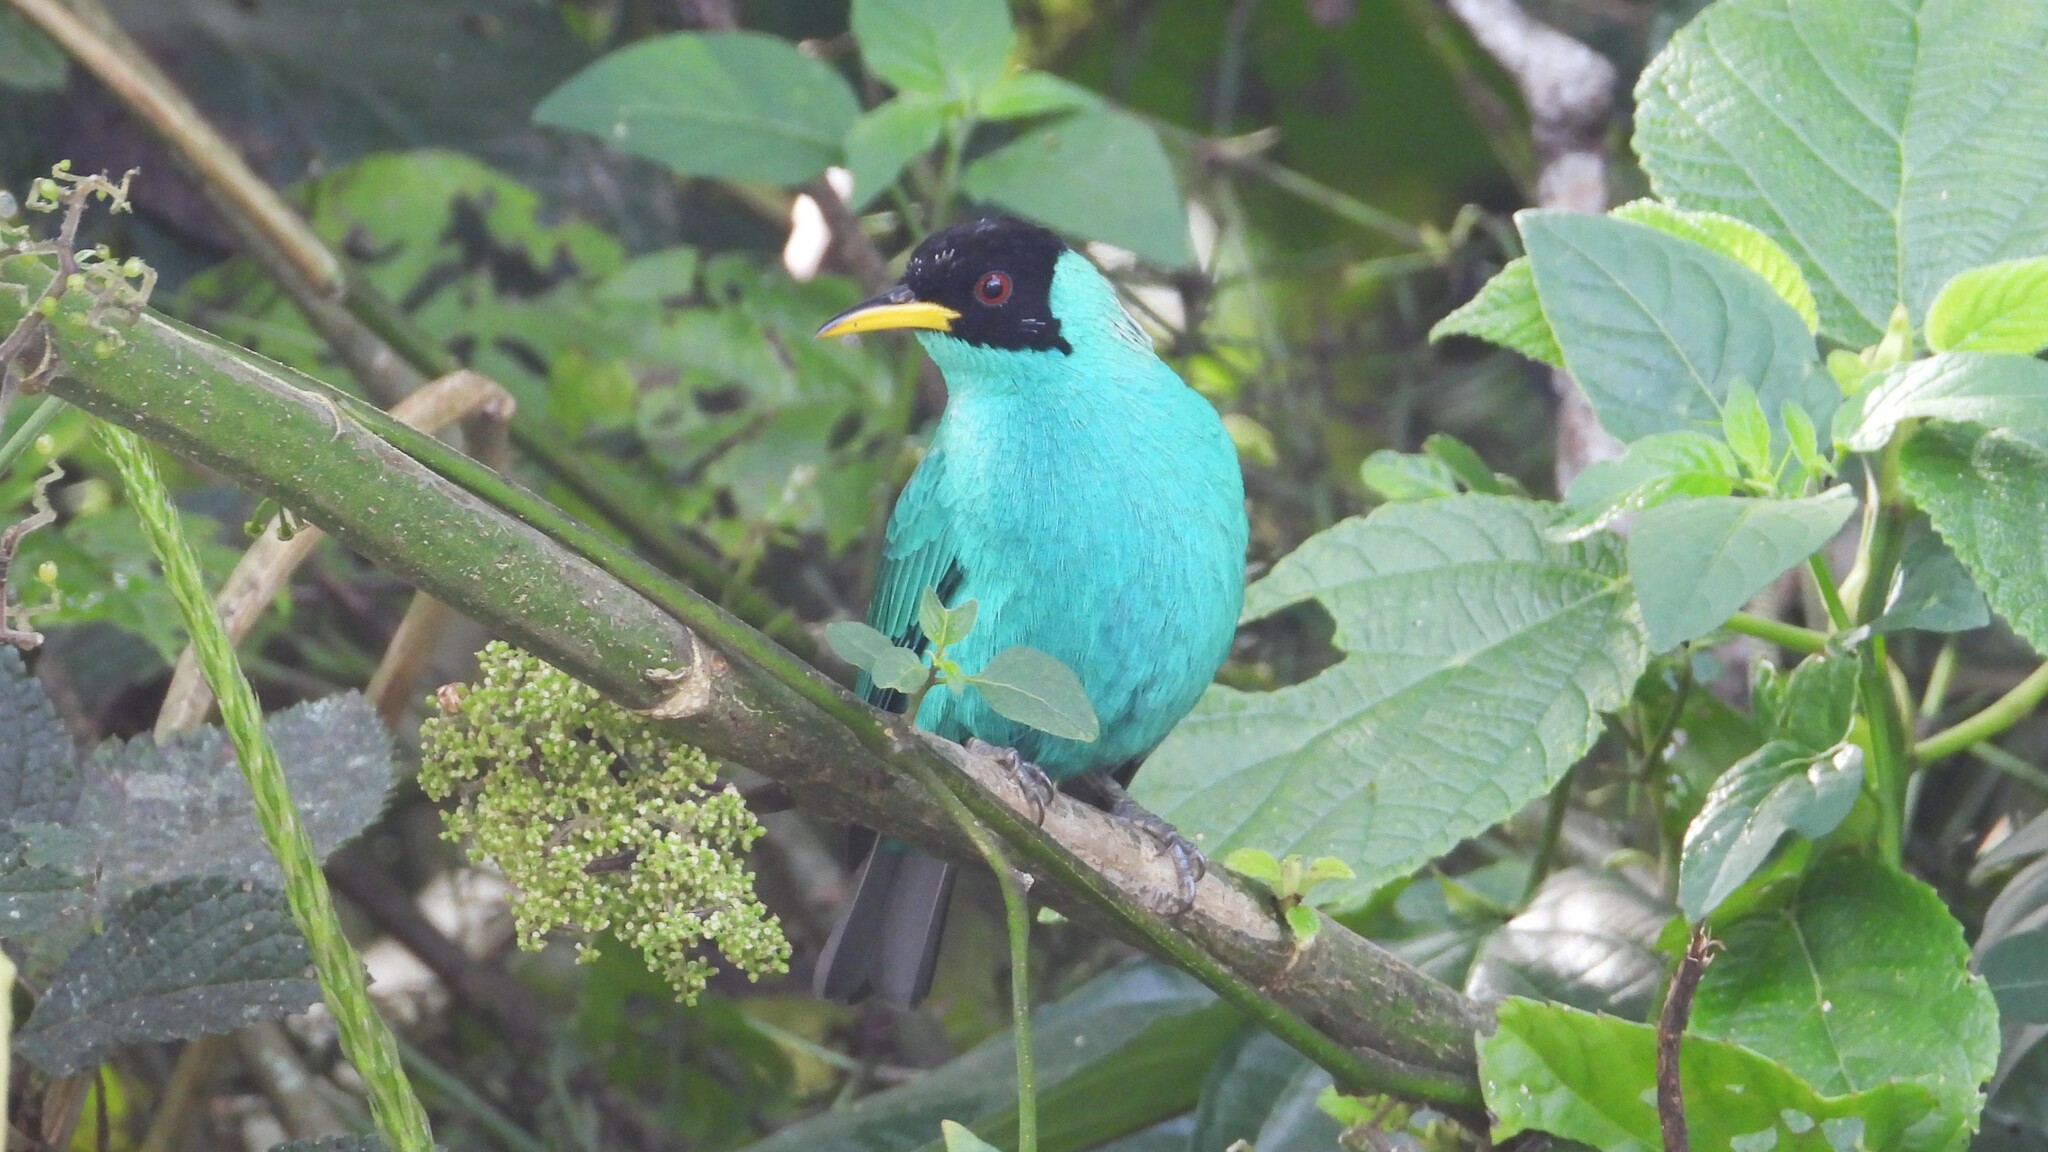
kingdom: Animalia
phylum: Chordata
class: Aves
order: Passeriformes
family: Thraupidae
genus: Chlorophanes
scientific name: Chlorophanes spiza
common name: Green honeycreeper
